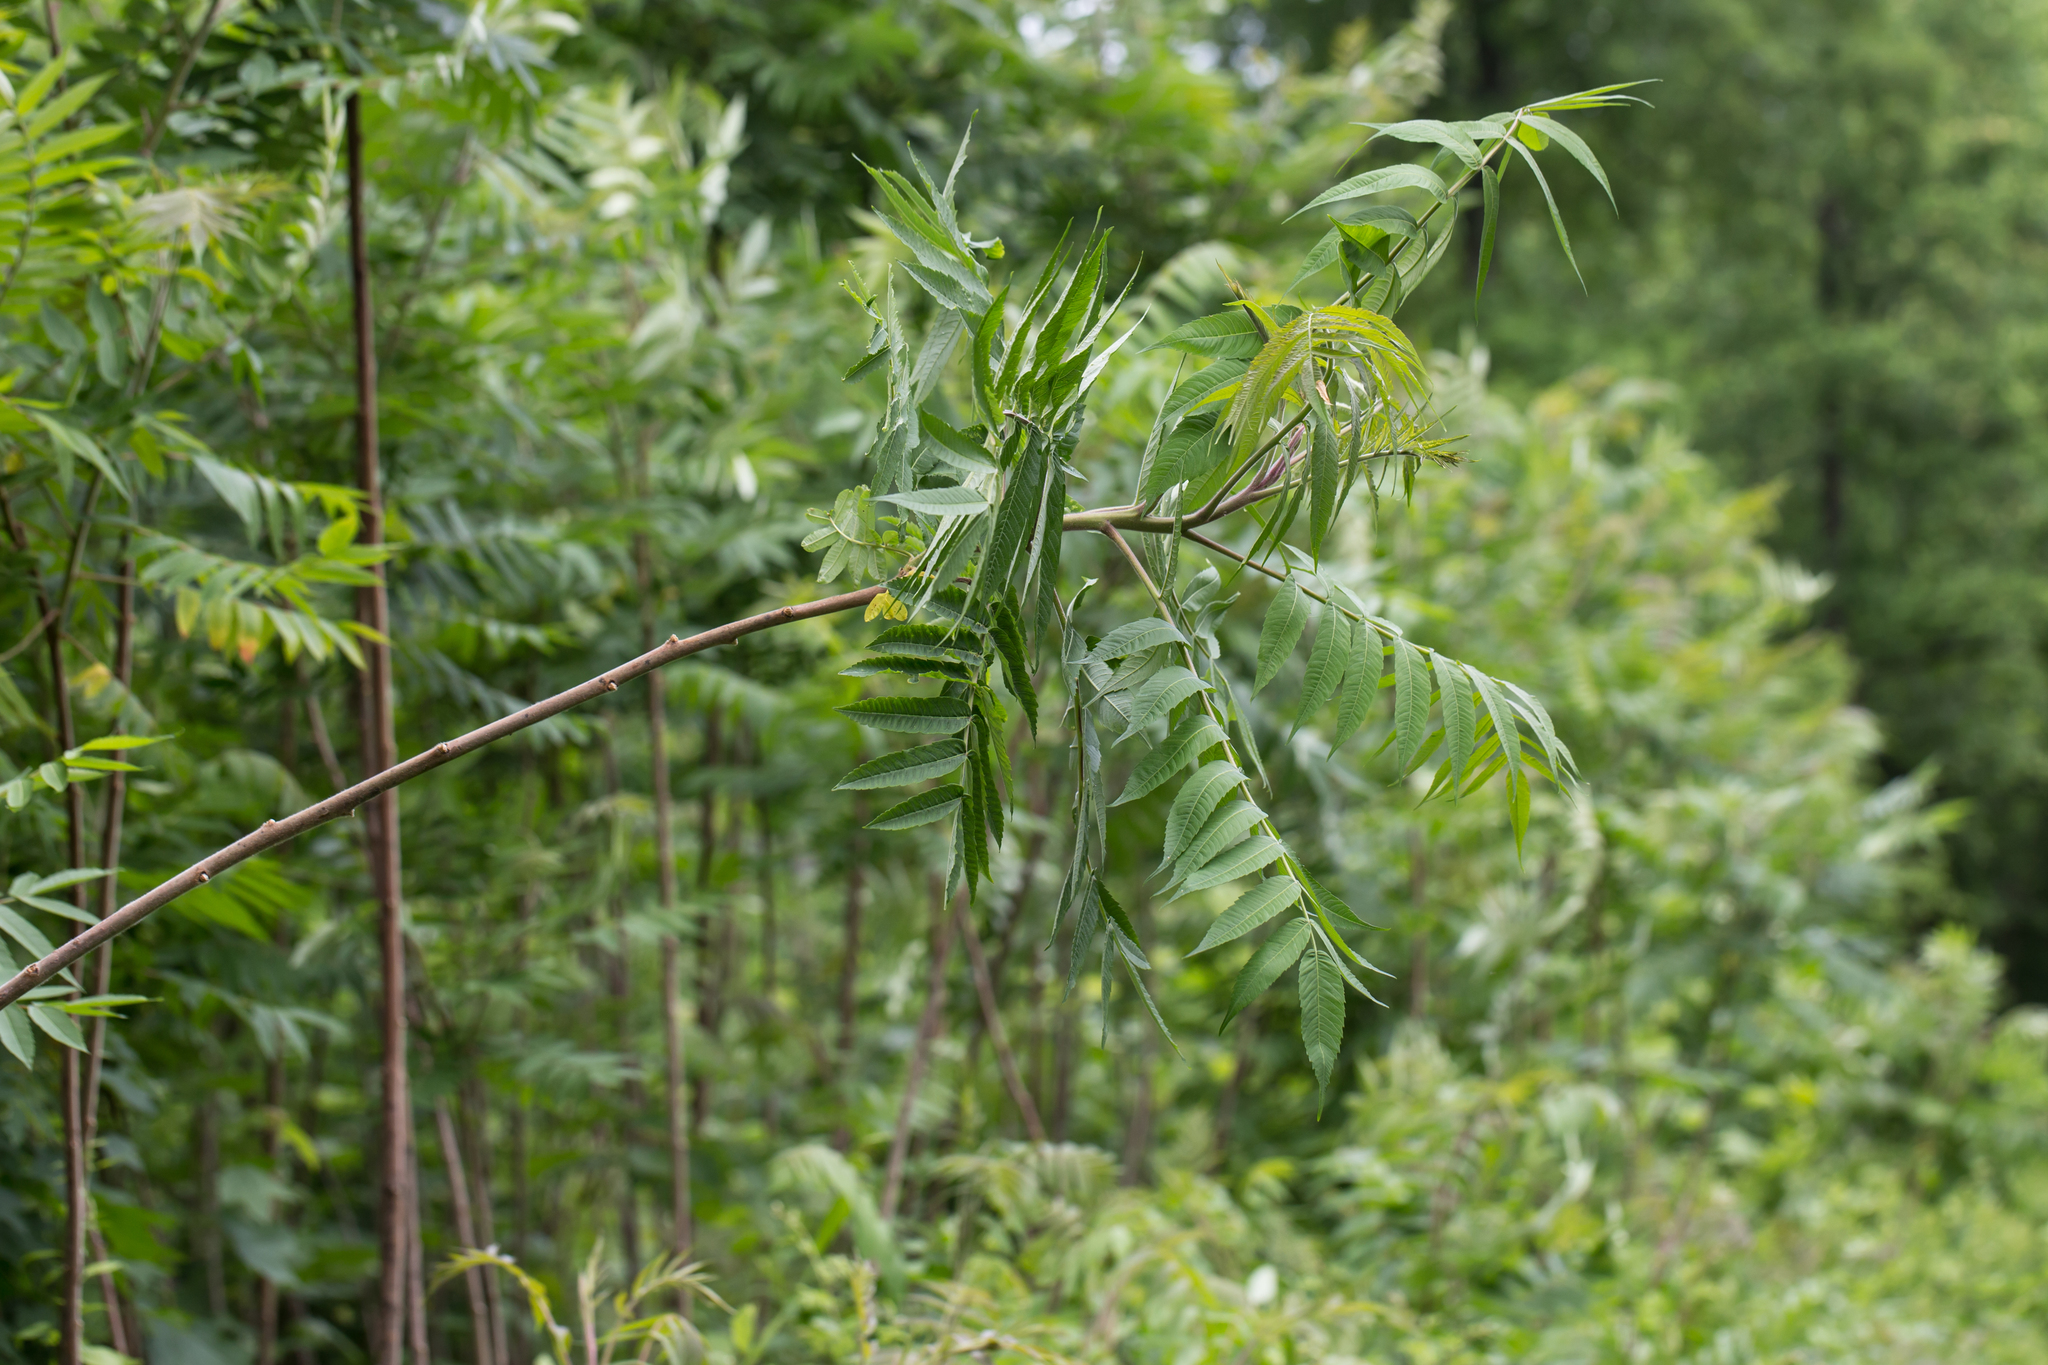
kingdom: Plantae
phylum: Tracheophyta
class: Magnoliopsida
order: Sapindales
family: Anacardiaceae
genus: Rhus
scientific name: Rhus typhina
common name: Staghorn sumac
